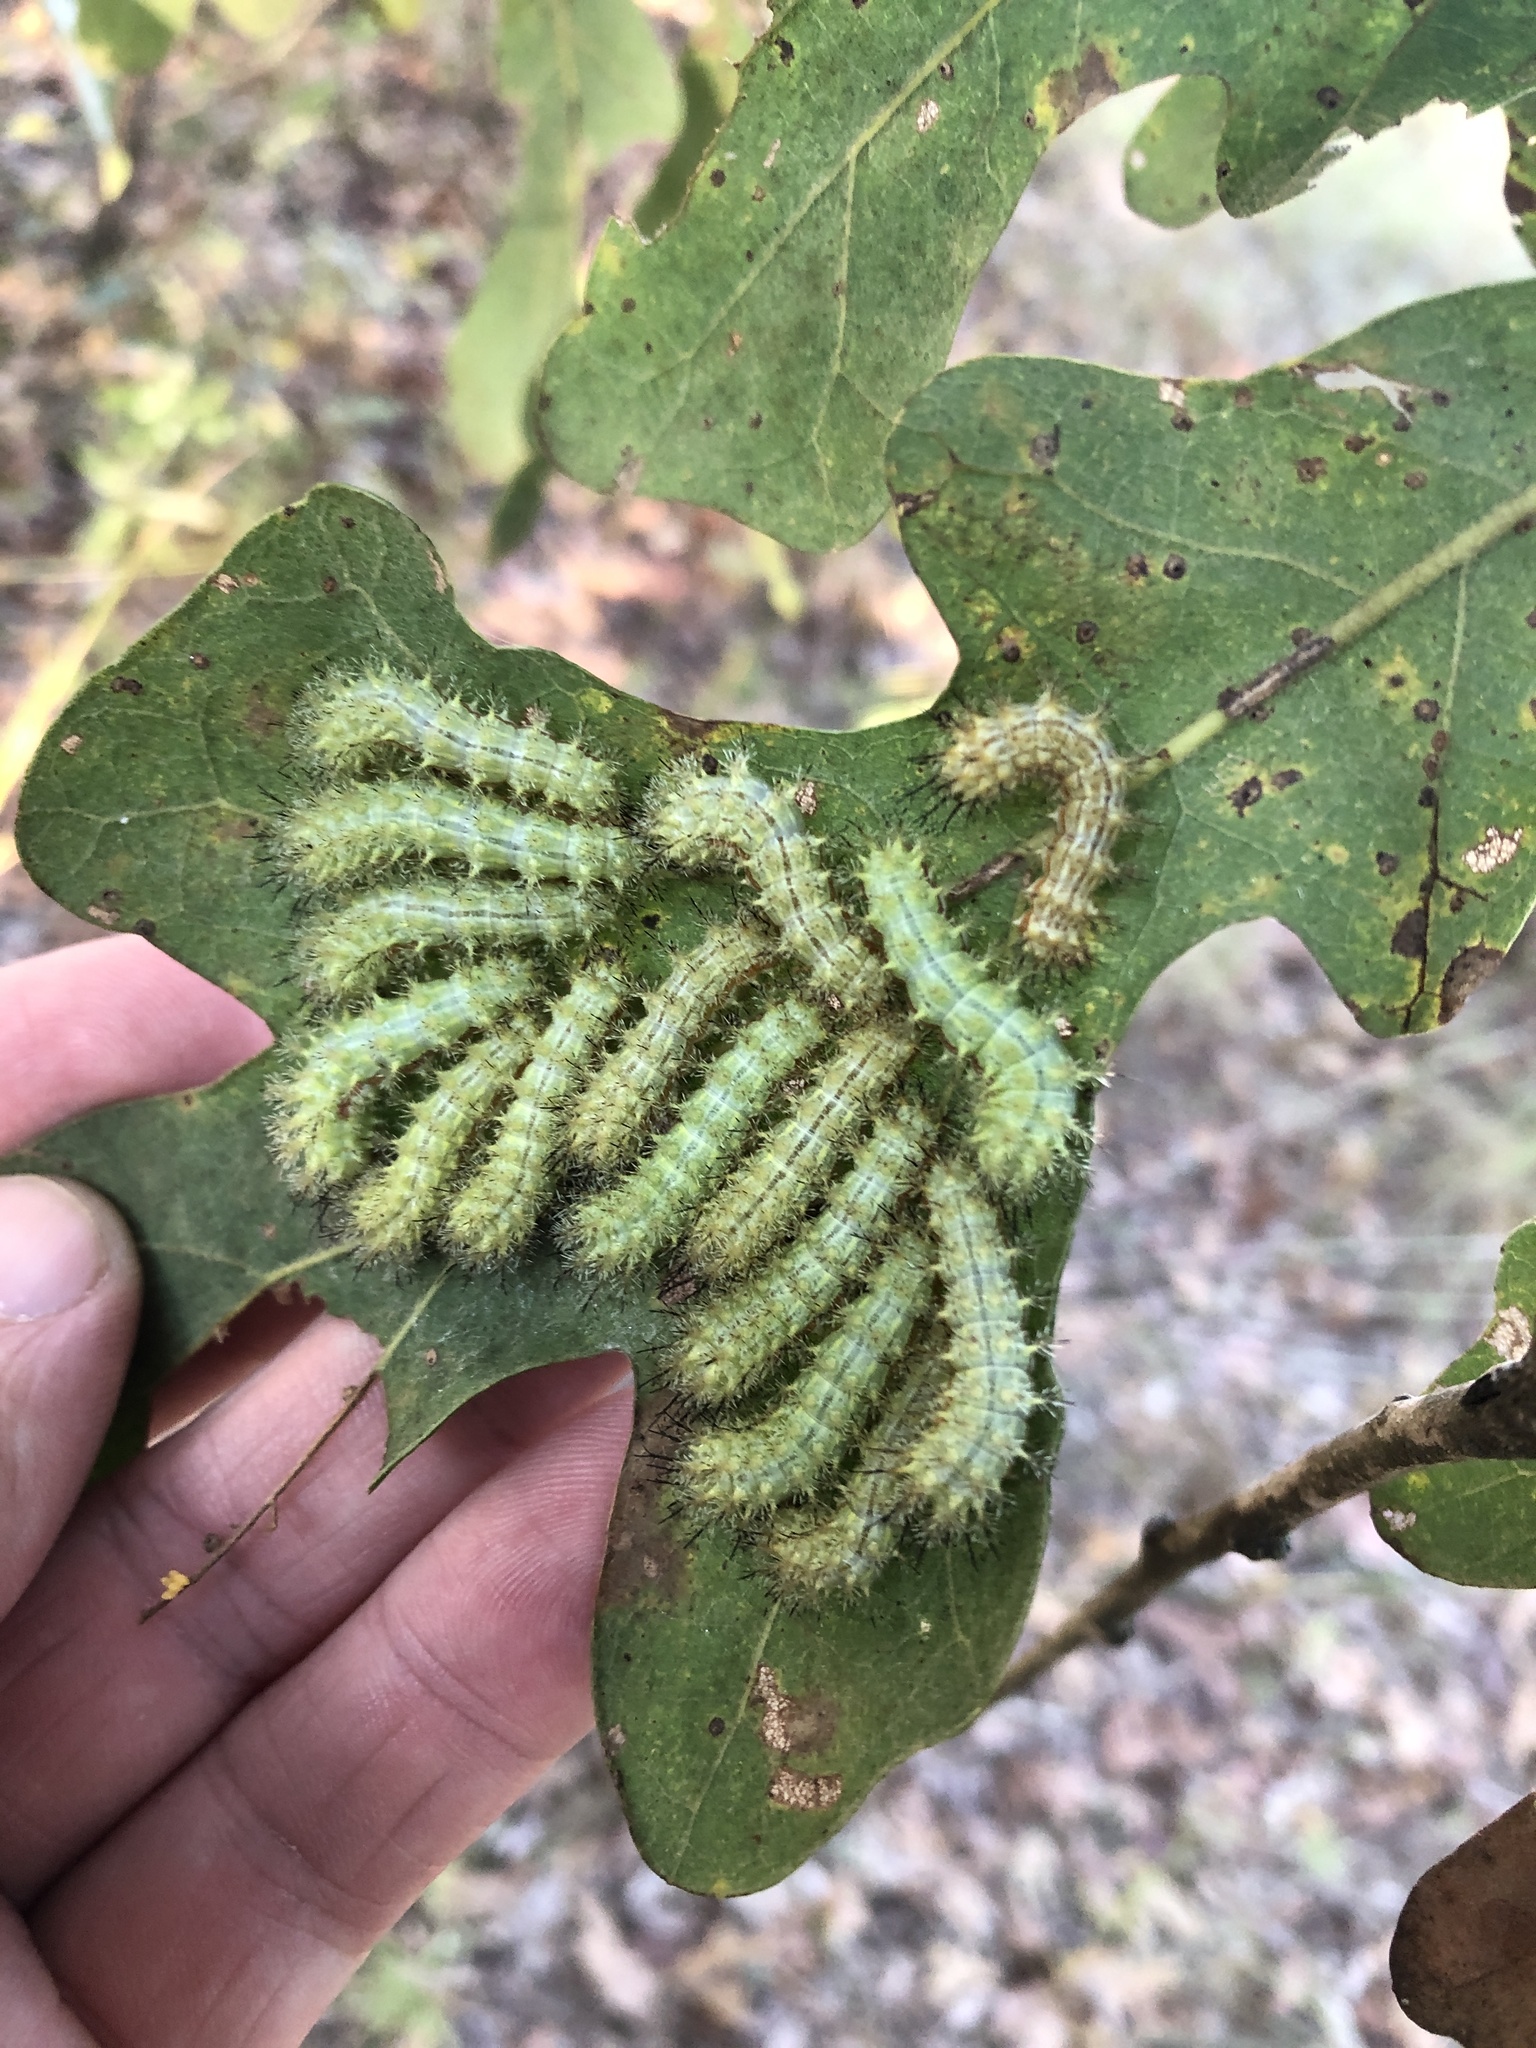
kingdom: Animalia
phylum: Arthropoda
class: Insecta
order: Lepidoptera
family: Saturniidae
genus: Automeris
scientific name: Automeris io
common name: Io moth
